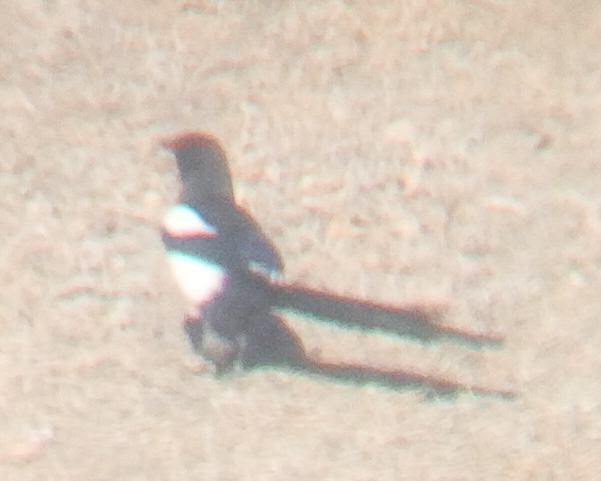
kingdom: Animalia
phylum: Chordata
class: Aves
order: Passeriformes
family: Corvidae
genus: Pica
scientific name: Pica pica
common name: Eurasian magpie
